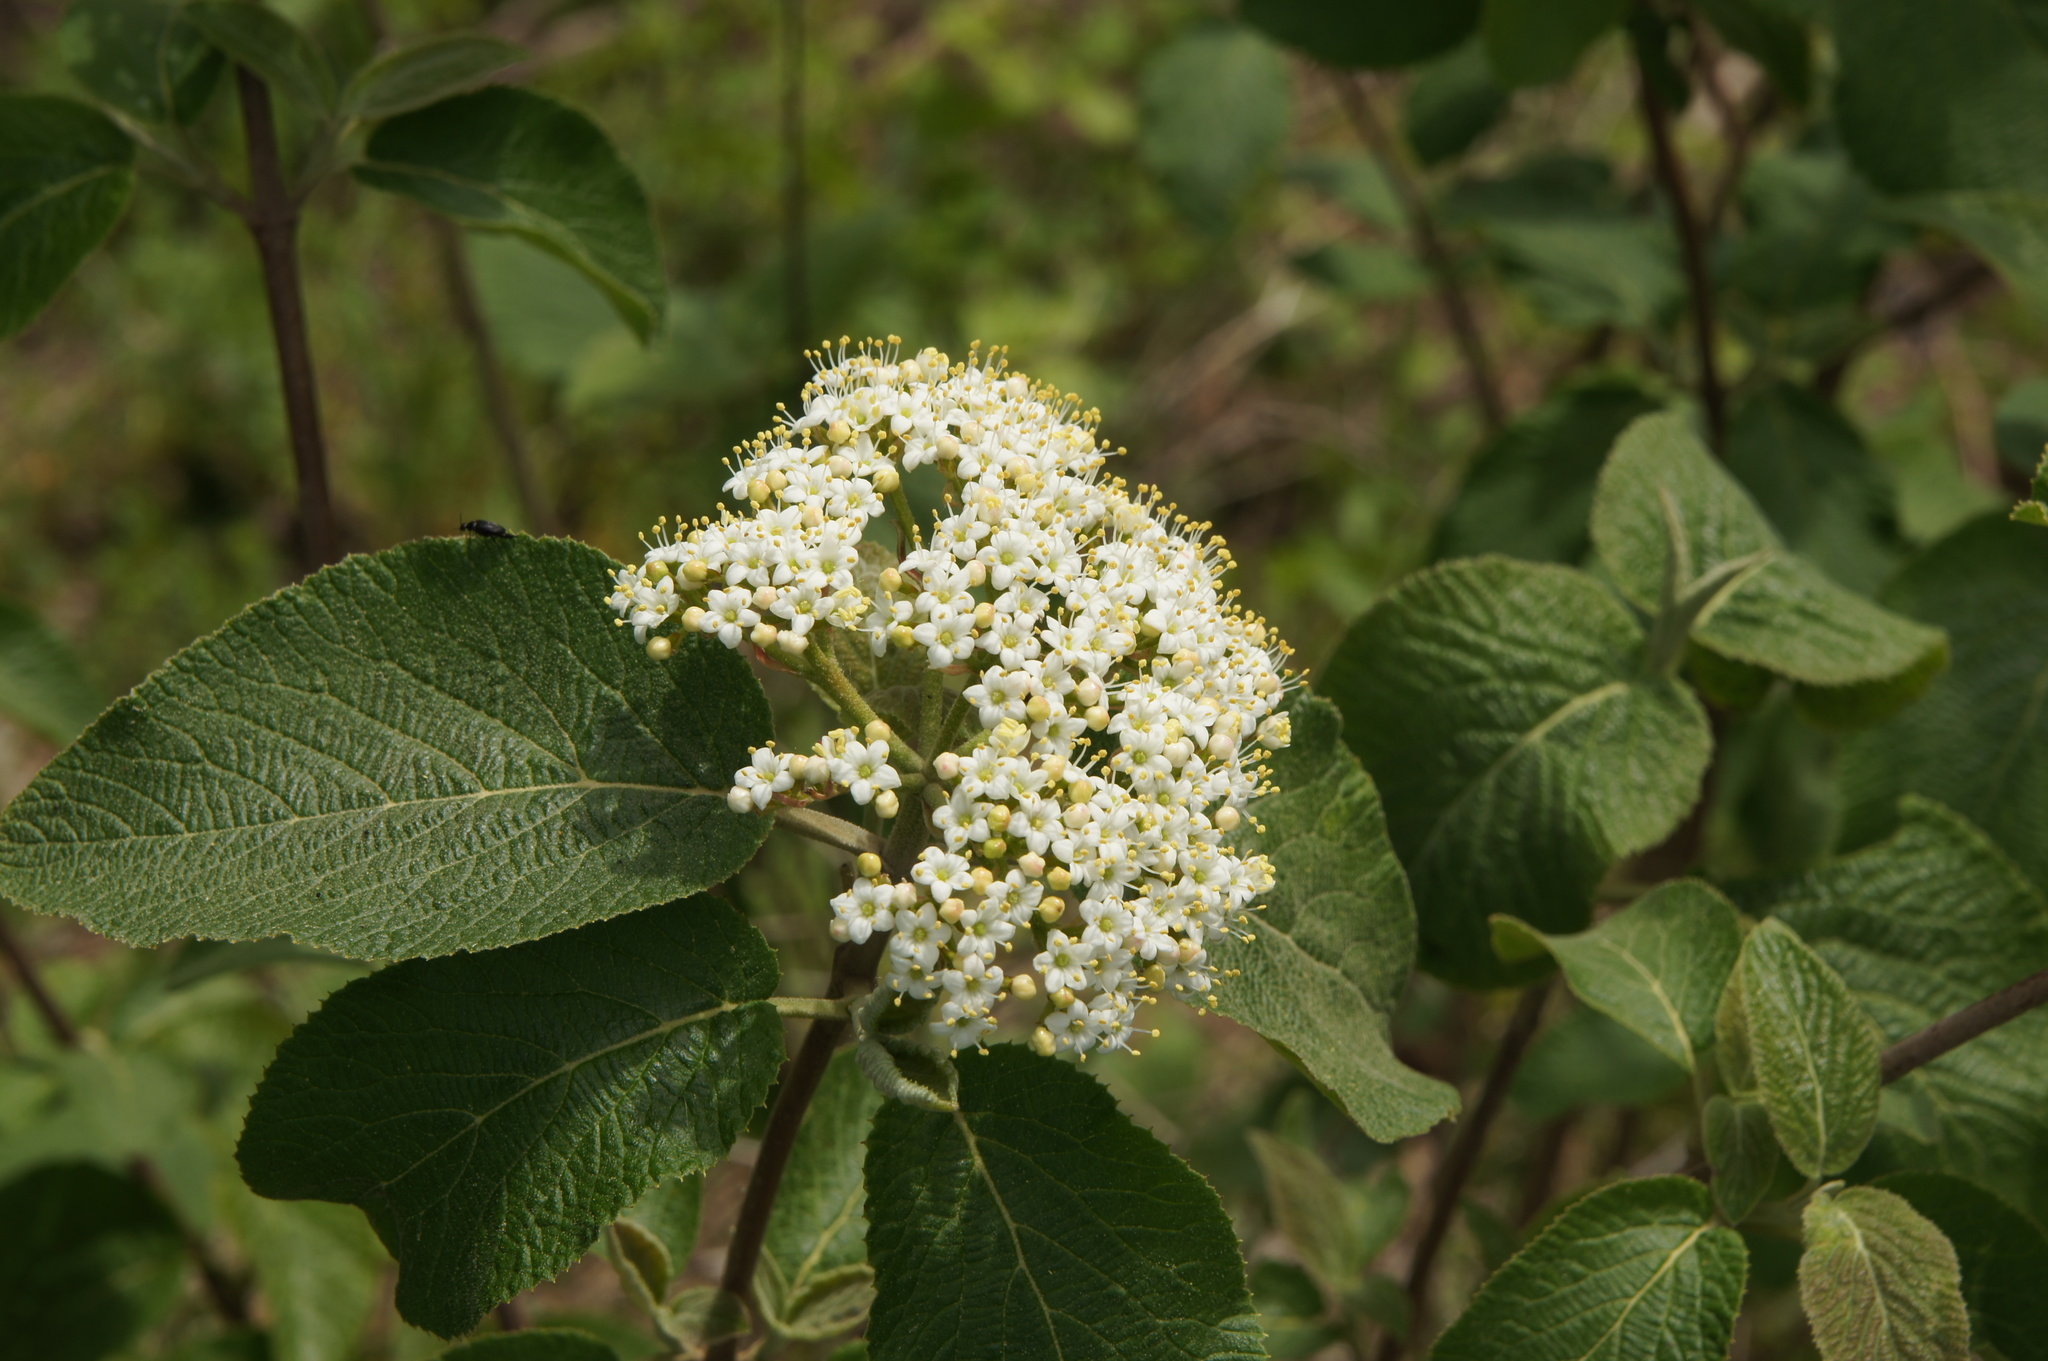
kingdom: Plantae
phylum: Tracheophyta
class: Magnoliopsida
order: Dipsacales
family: Viburnaceae
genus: Viburnum
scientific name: Viburnum lantana
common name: Wayfaring tree
